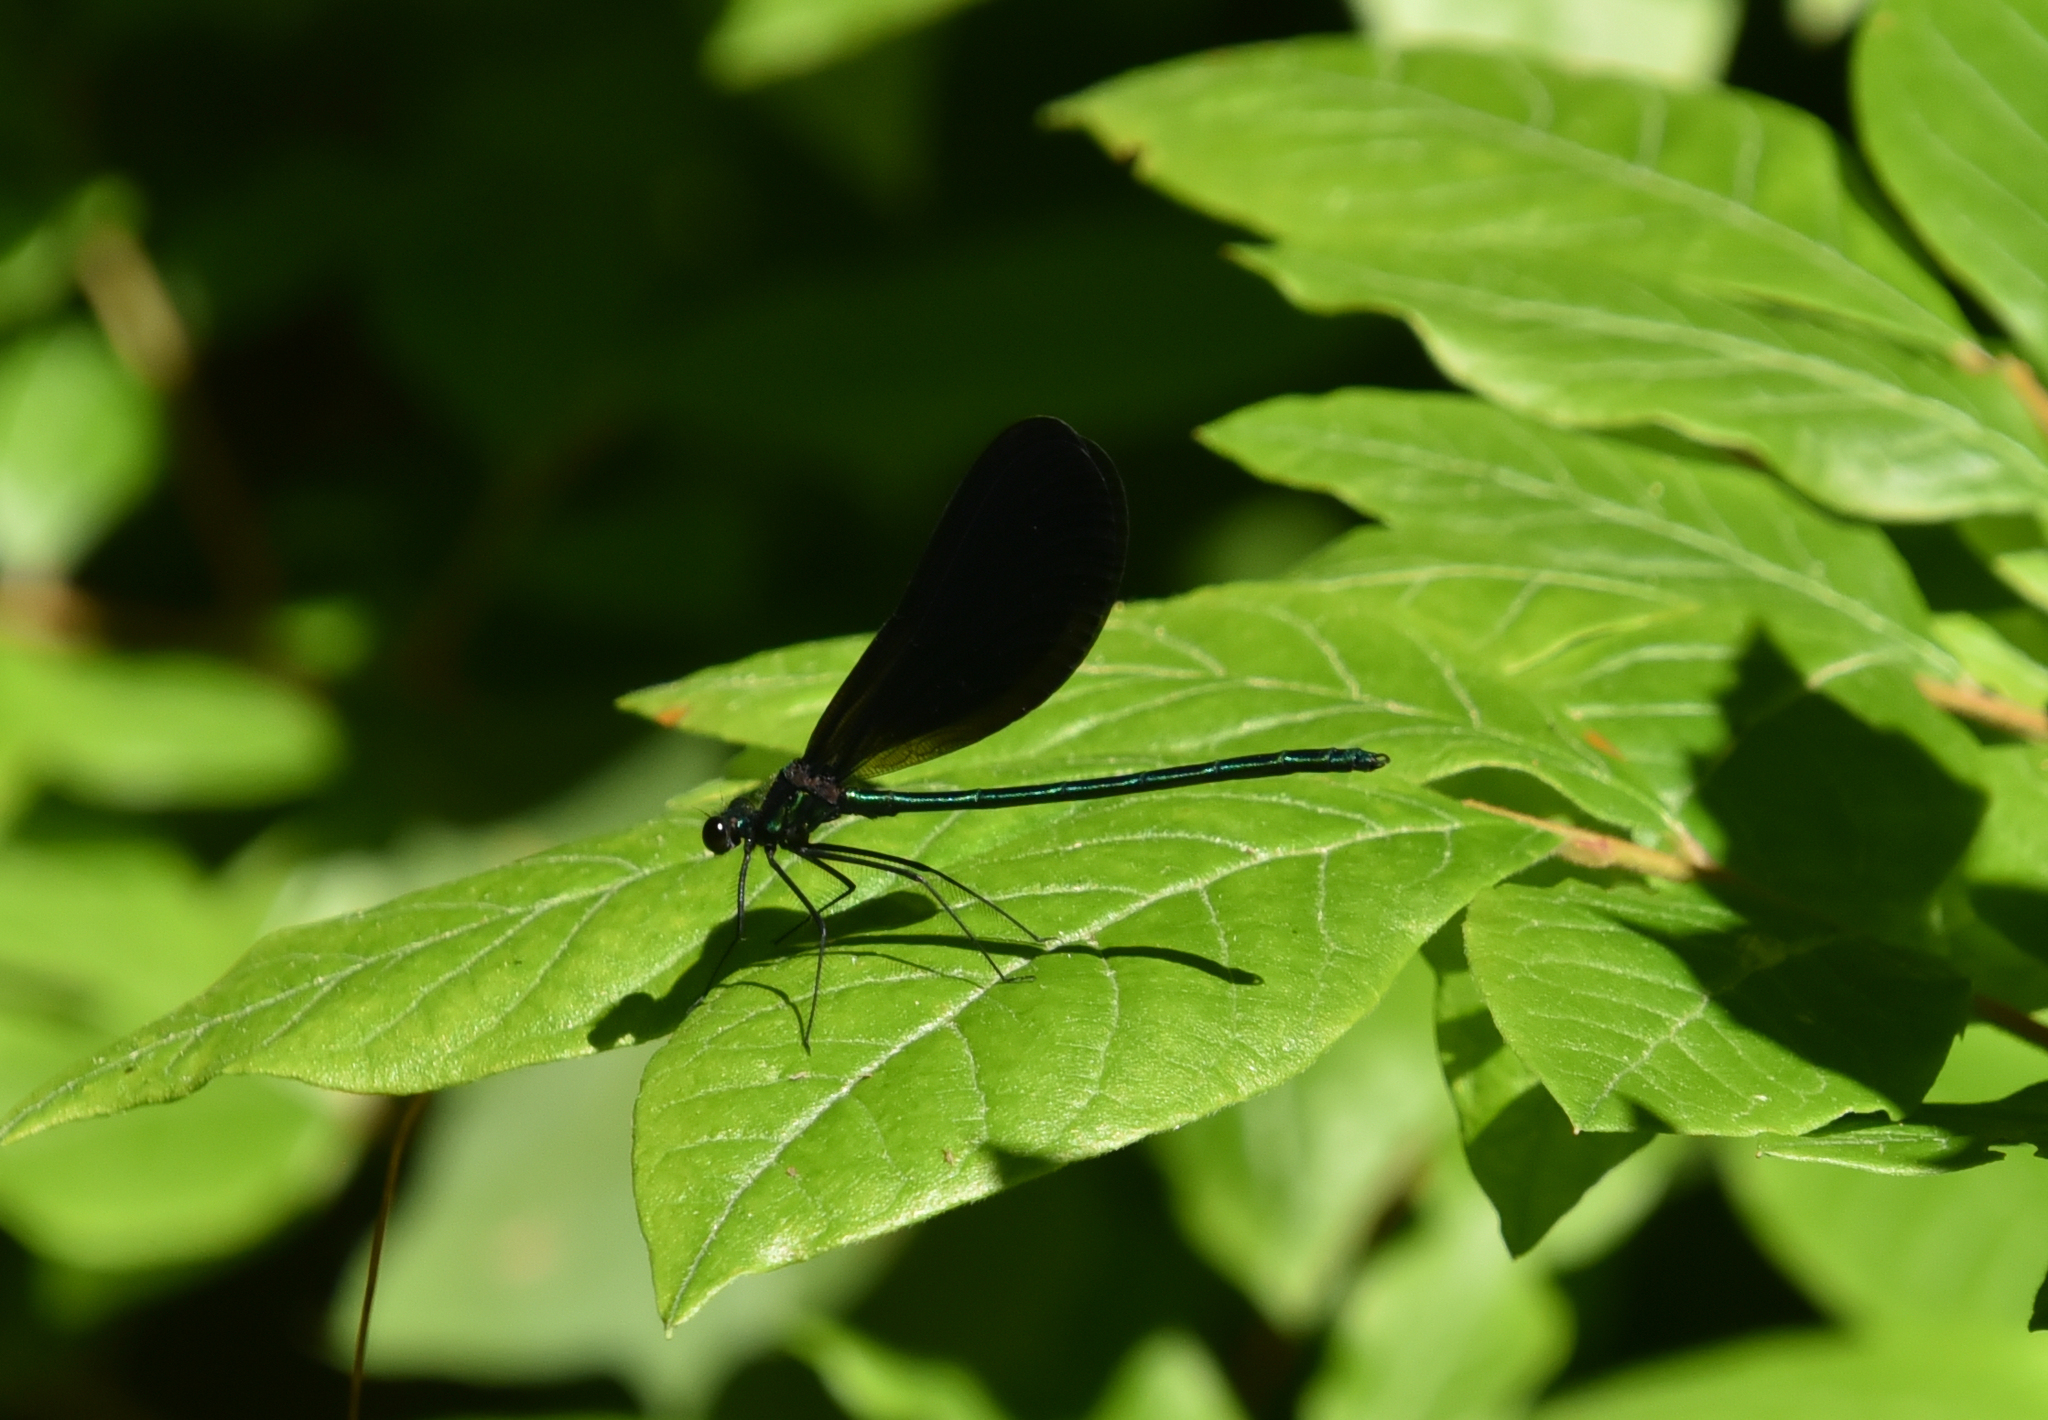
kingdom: Animalia
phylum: Arthropoda
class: Insecta
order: Odonata
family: Calopterygidae
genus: Calopteryx
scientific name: Calopteryx maculata
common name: Ebony jewelwing
